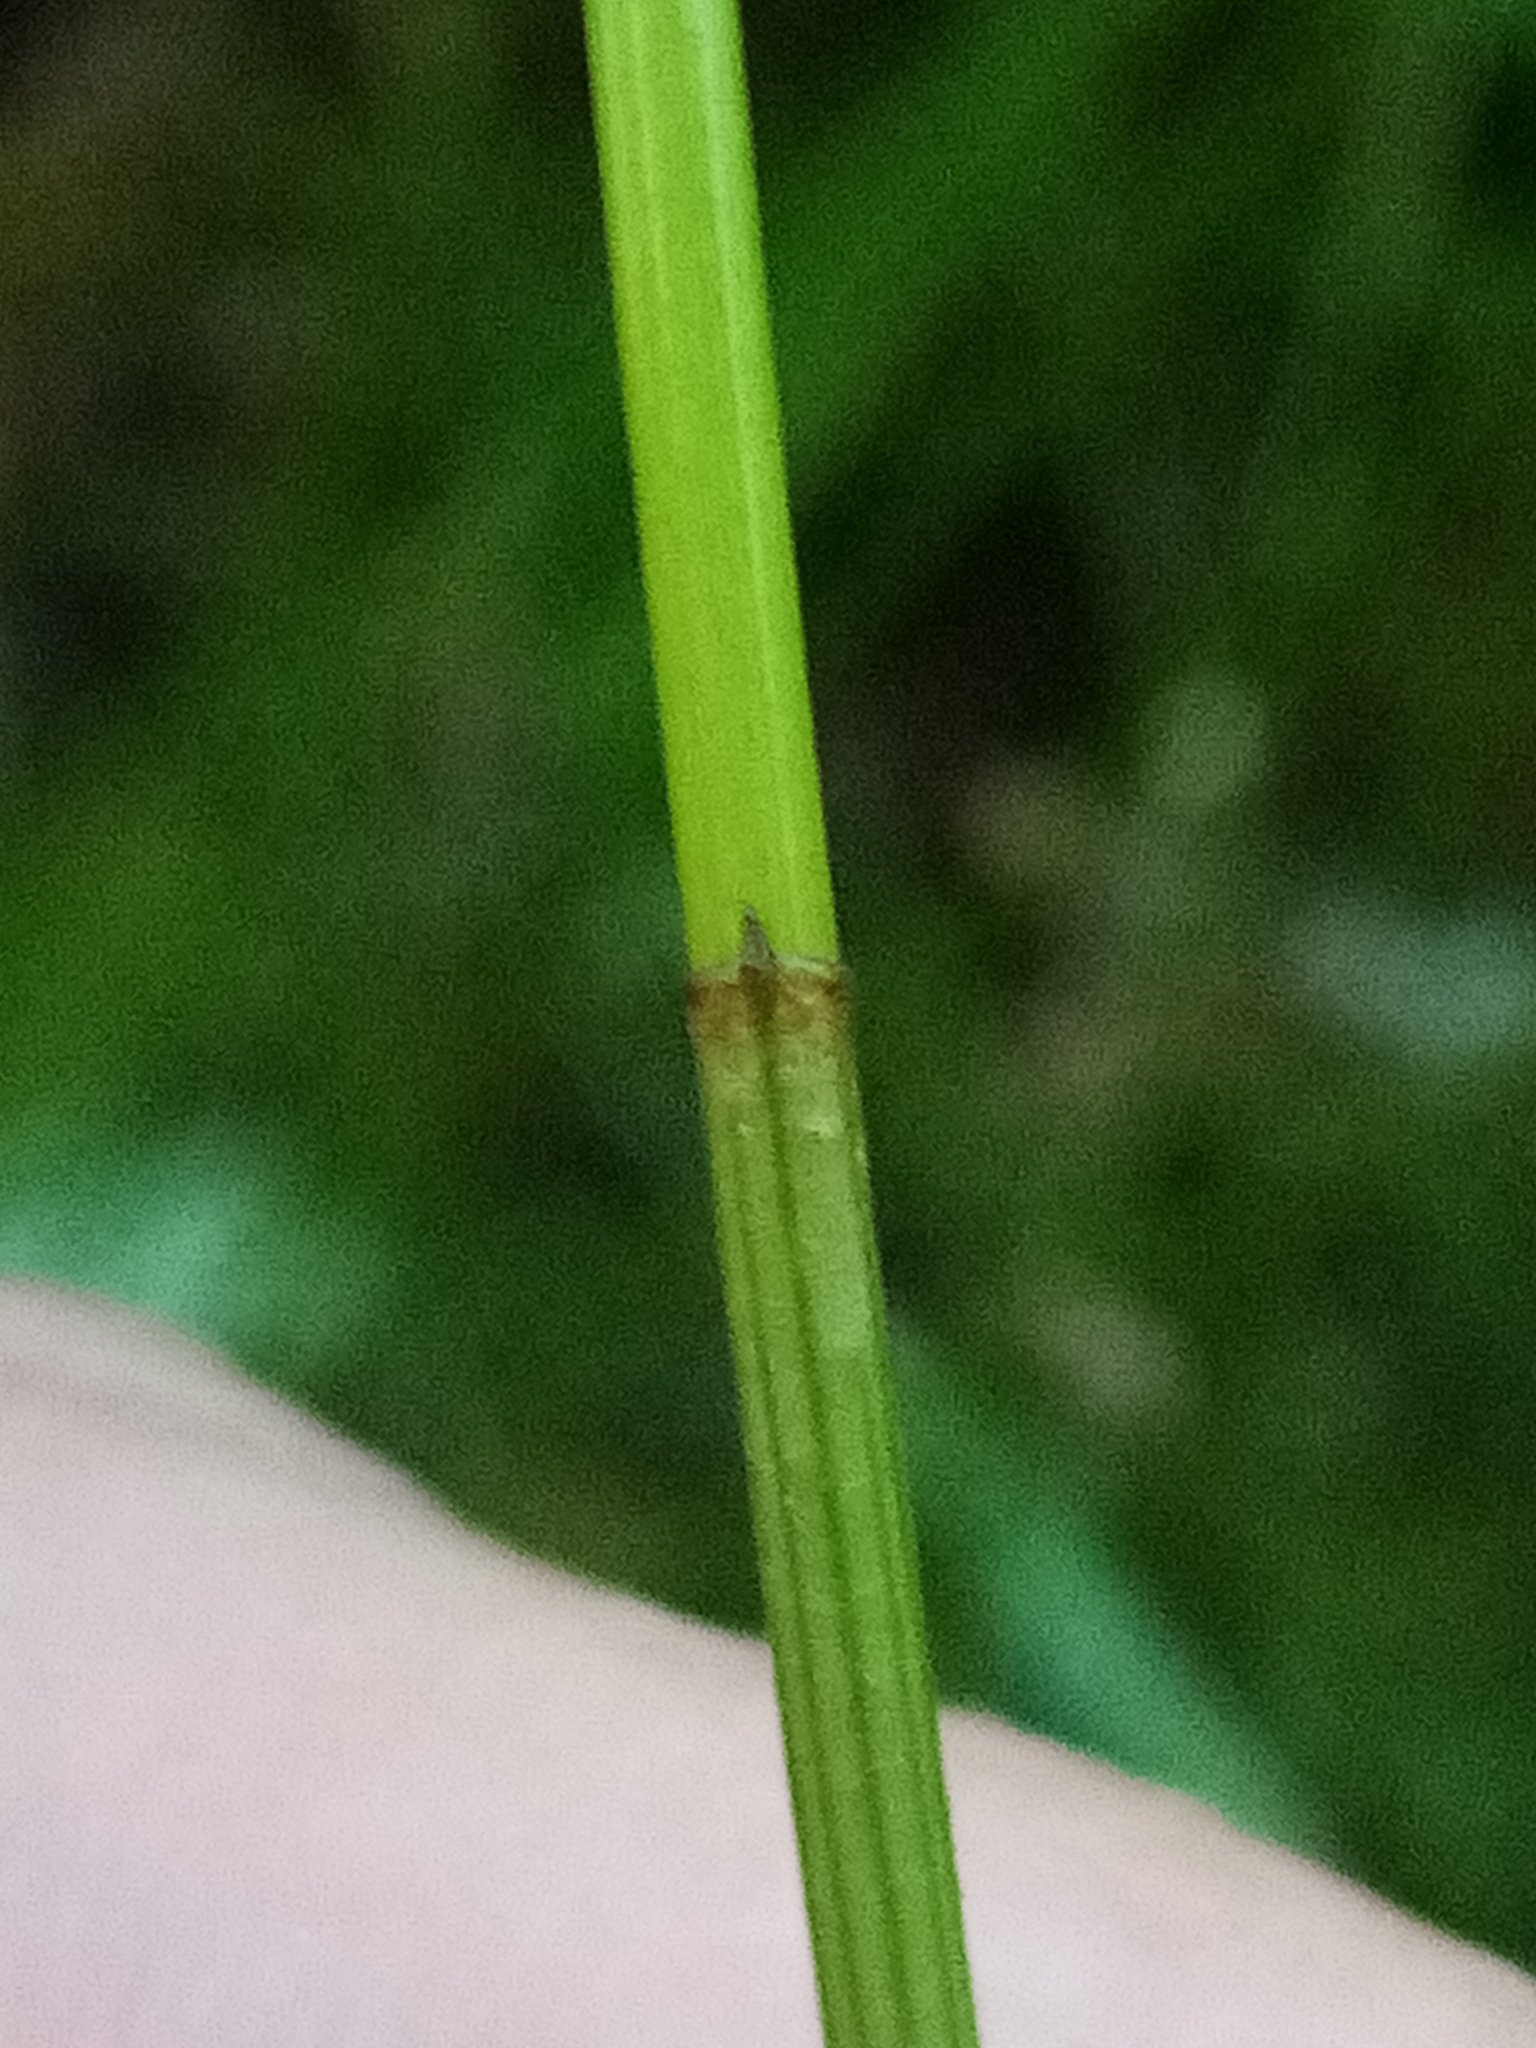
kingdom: Plantae
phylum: Tracheophyta
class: Liliopsida
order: Poales
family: Cyperaceae
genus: Eleocharis
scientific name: Eleocharis acuta
